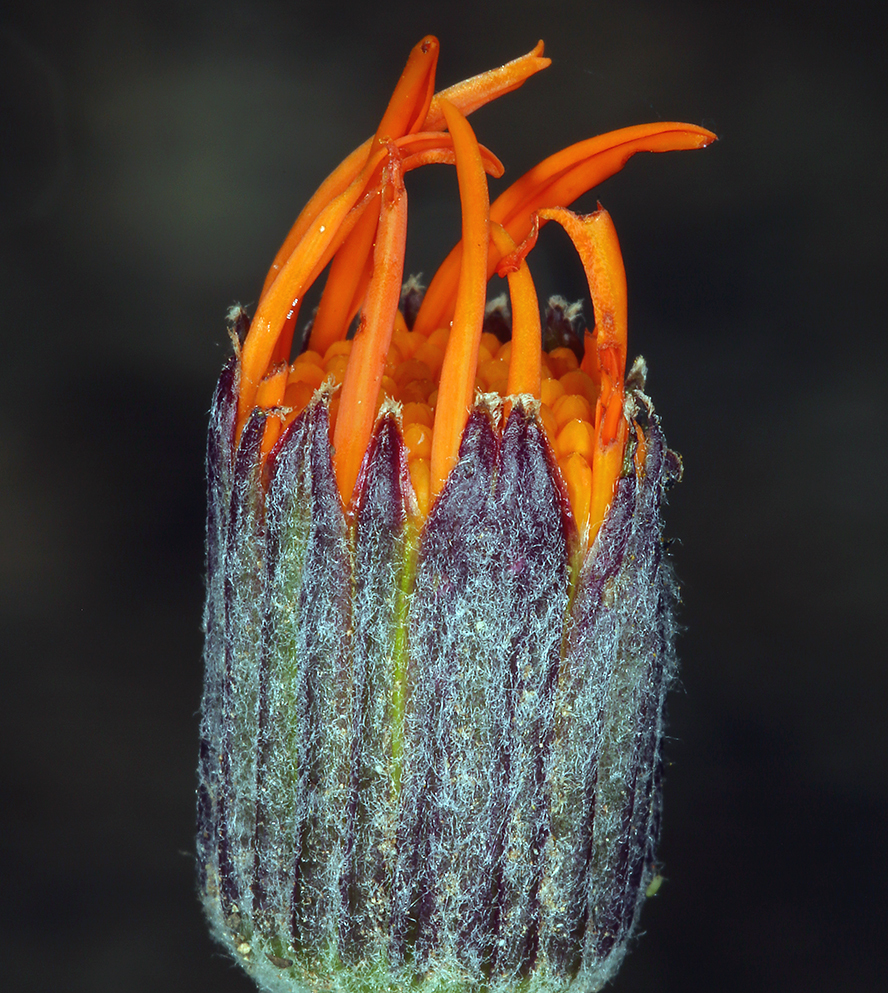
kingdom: Plantae
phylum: Tracheophyta
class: Magnoliopsida
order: Asterales
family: Asteraceae
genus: Packera
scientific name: Packera greenei
